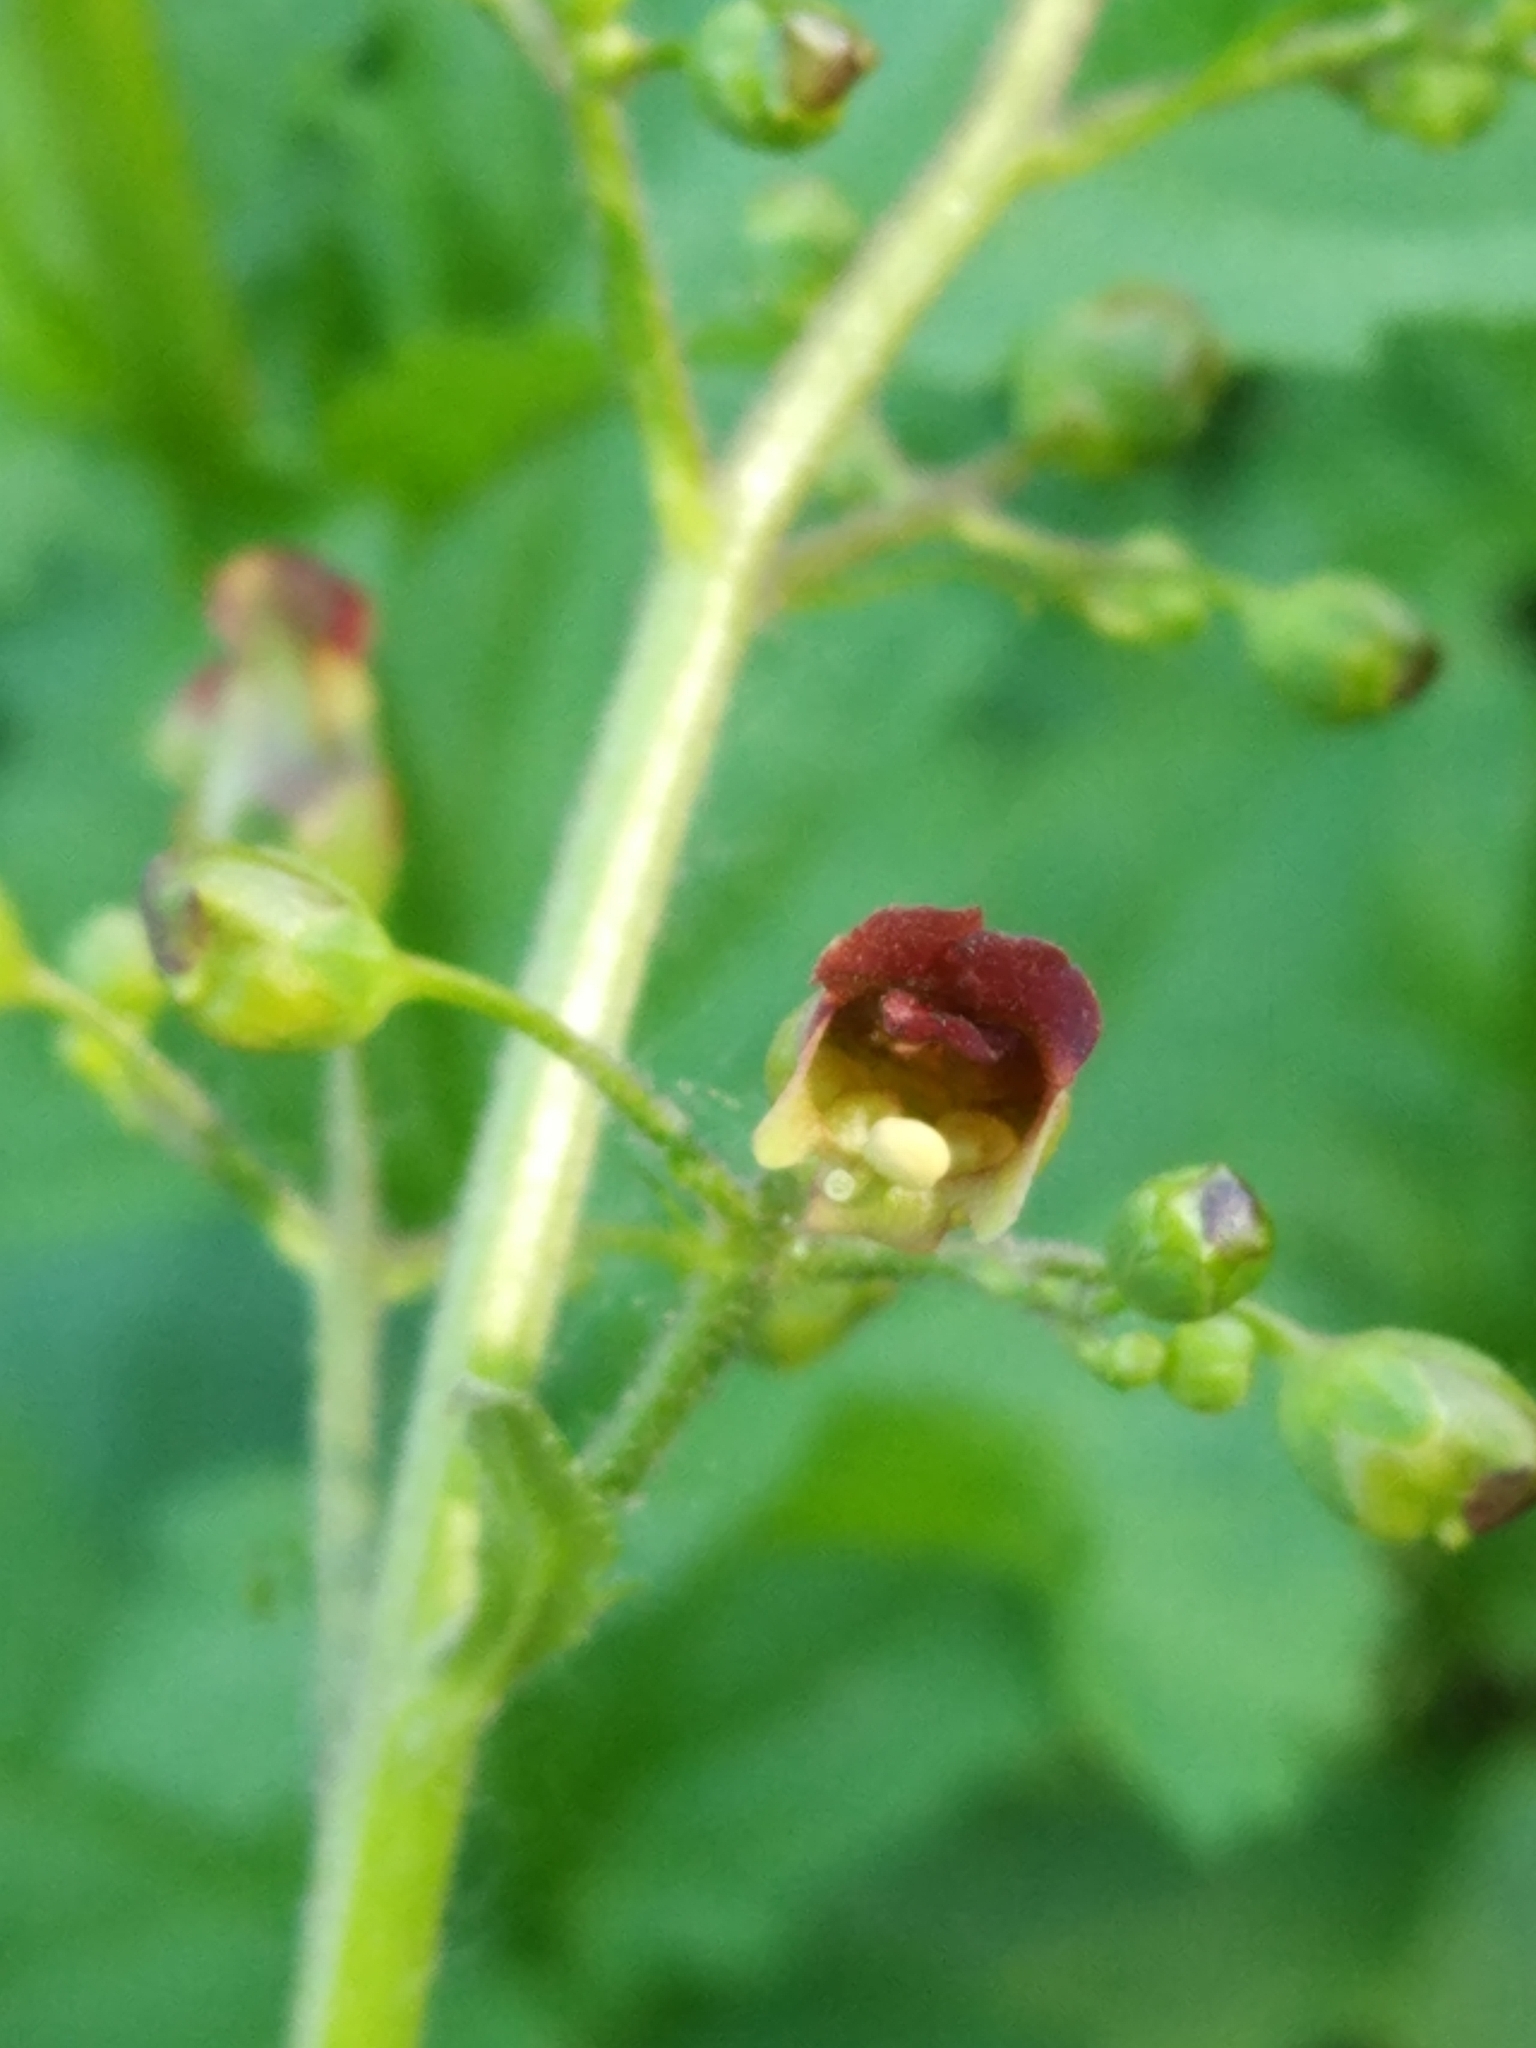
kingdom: Plantae
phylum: Tracheophyta
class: Magnoliopsida
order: Lamiales
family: Scrophulariaceae
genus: Scrophularia
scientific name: Scrophularia nodosa
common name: Common figwort
